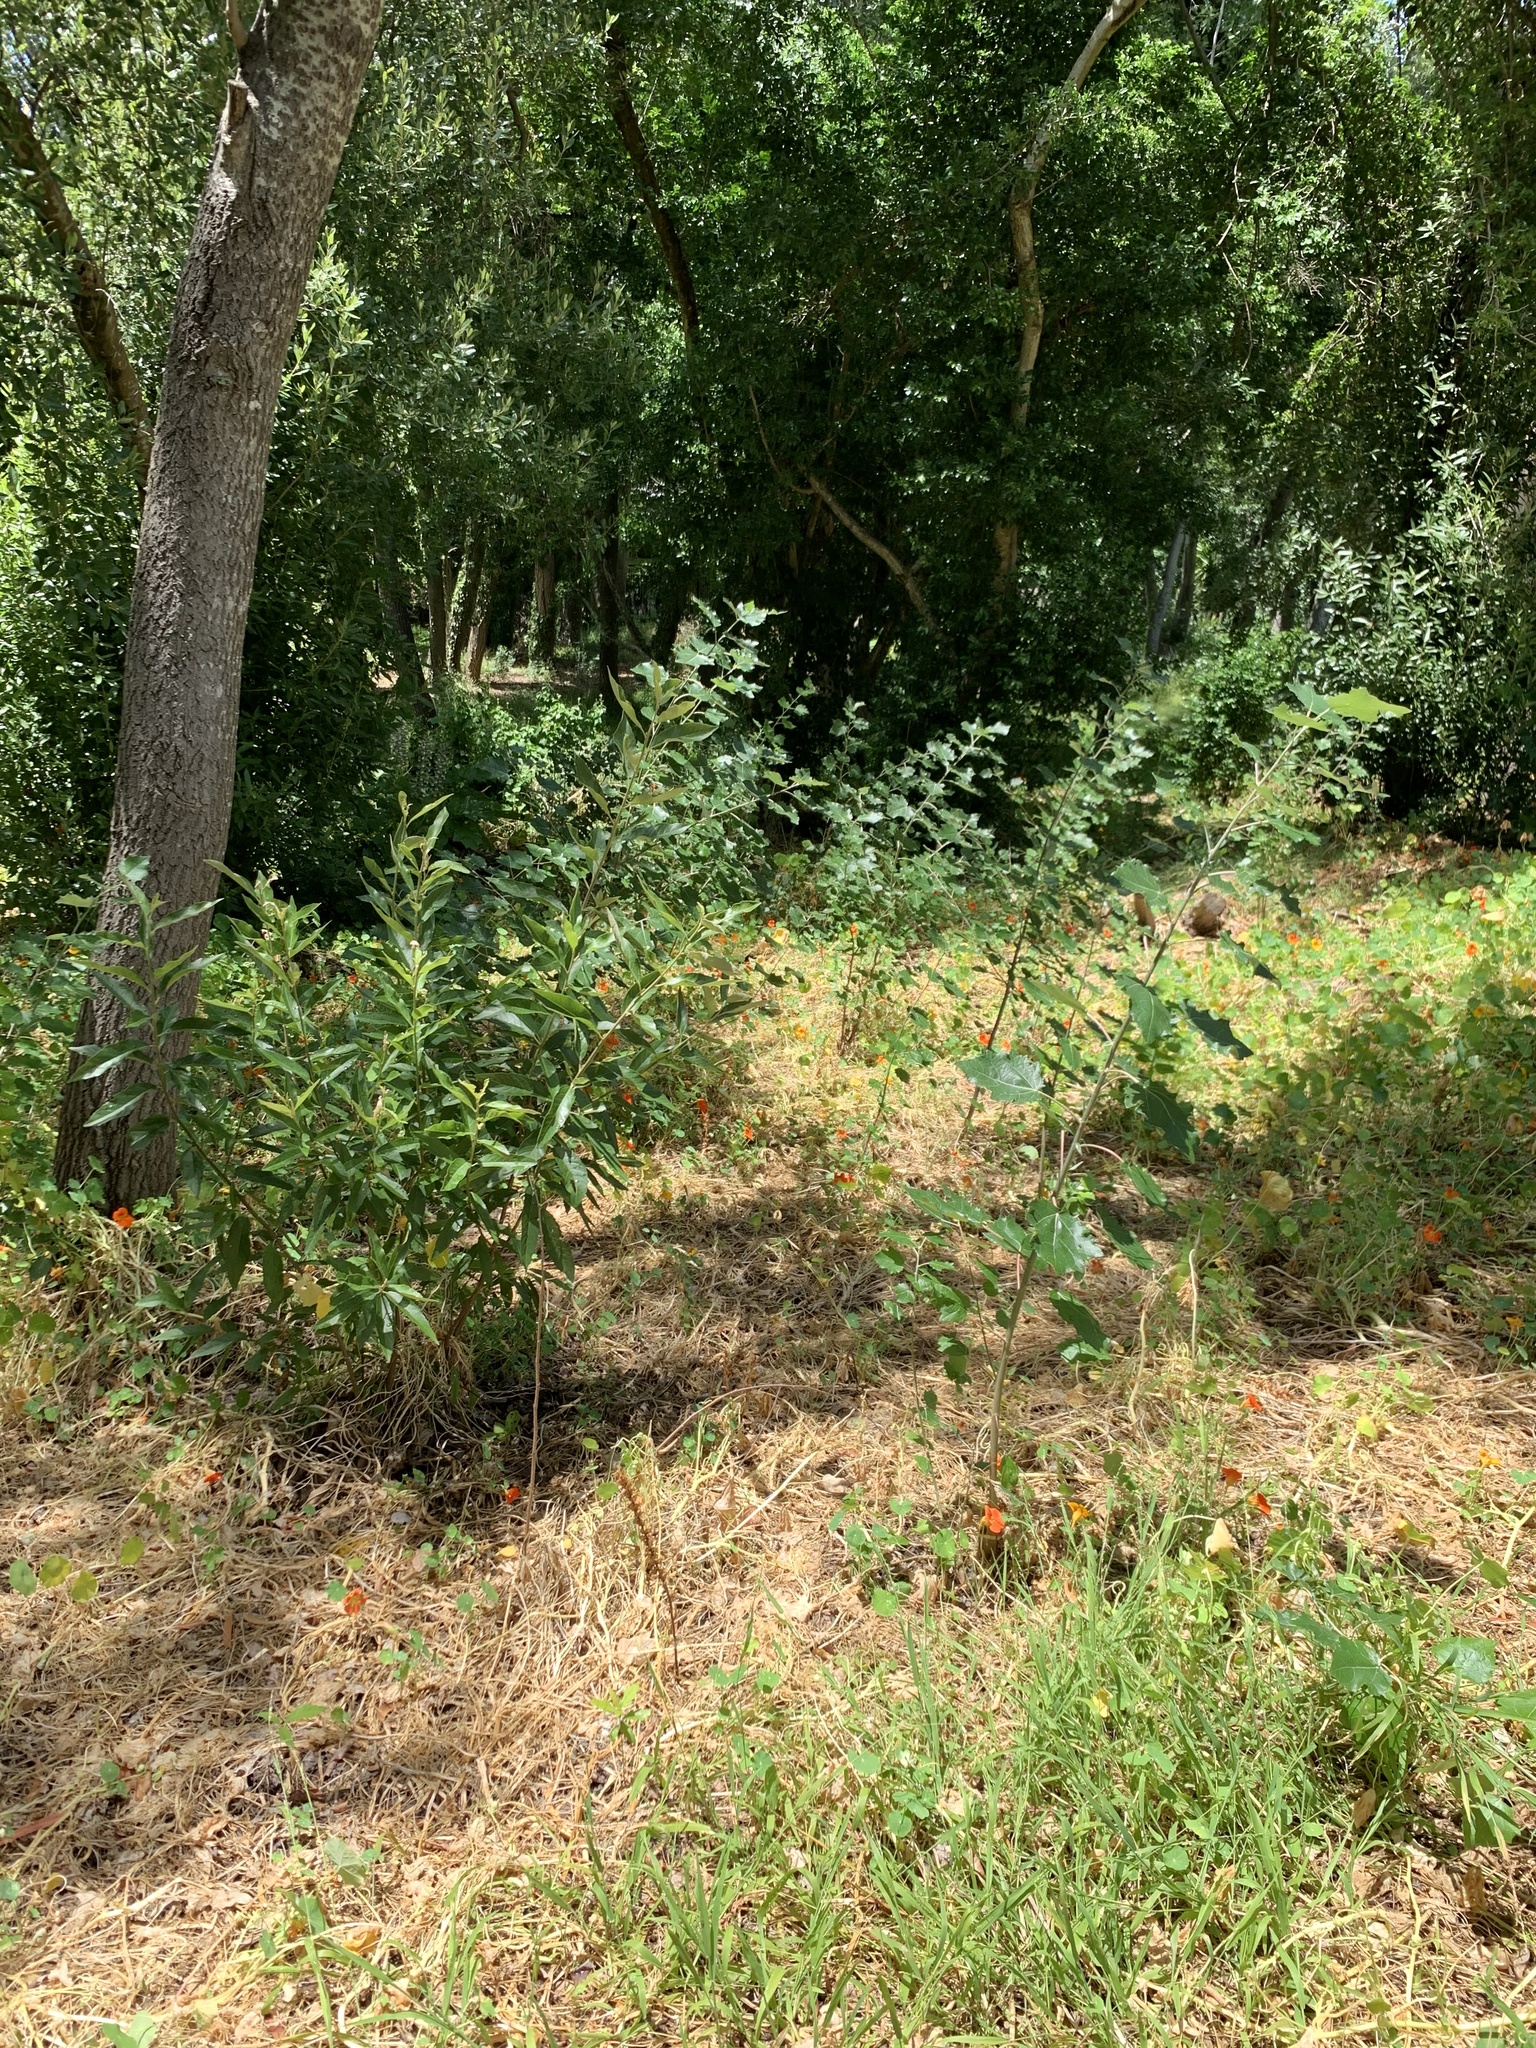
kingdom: Plantae
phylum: Tracheophyta
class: Magnoliopsida
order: Malpighiales
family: Salicaceae
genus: Populus
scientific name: Populus canescens
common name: Gray poplar
